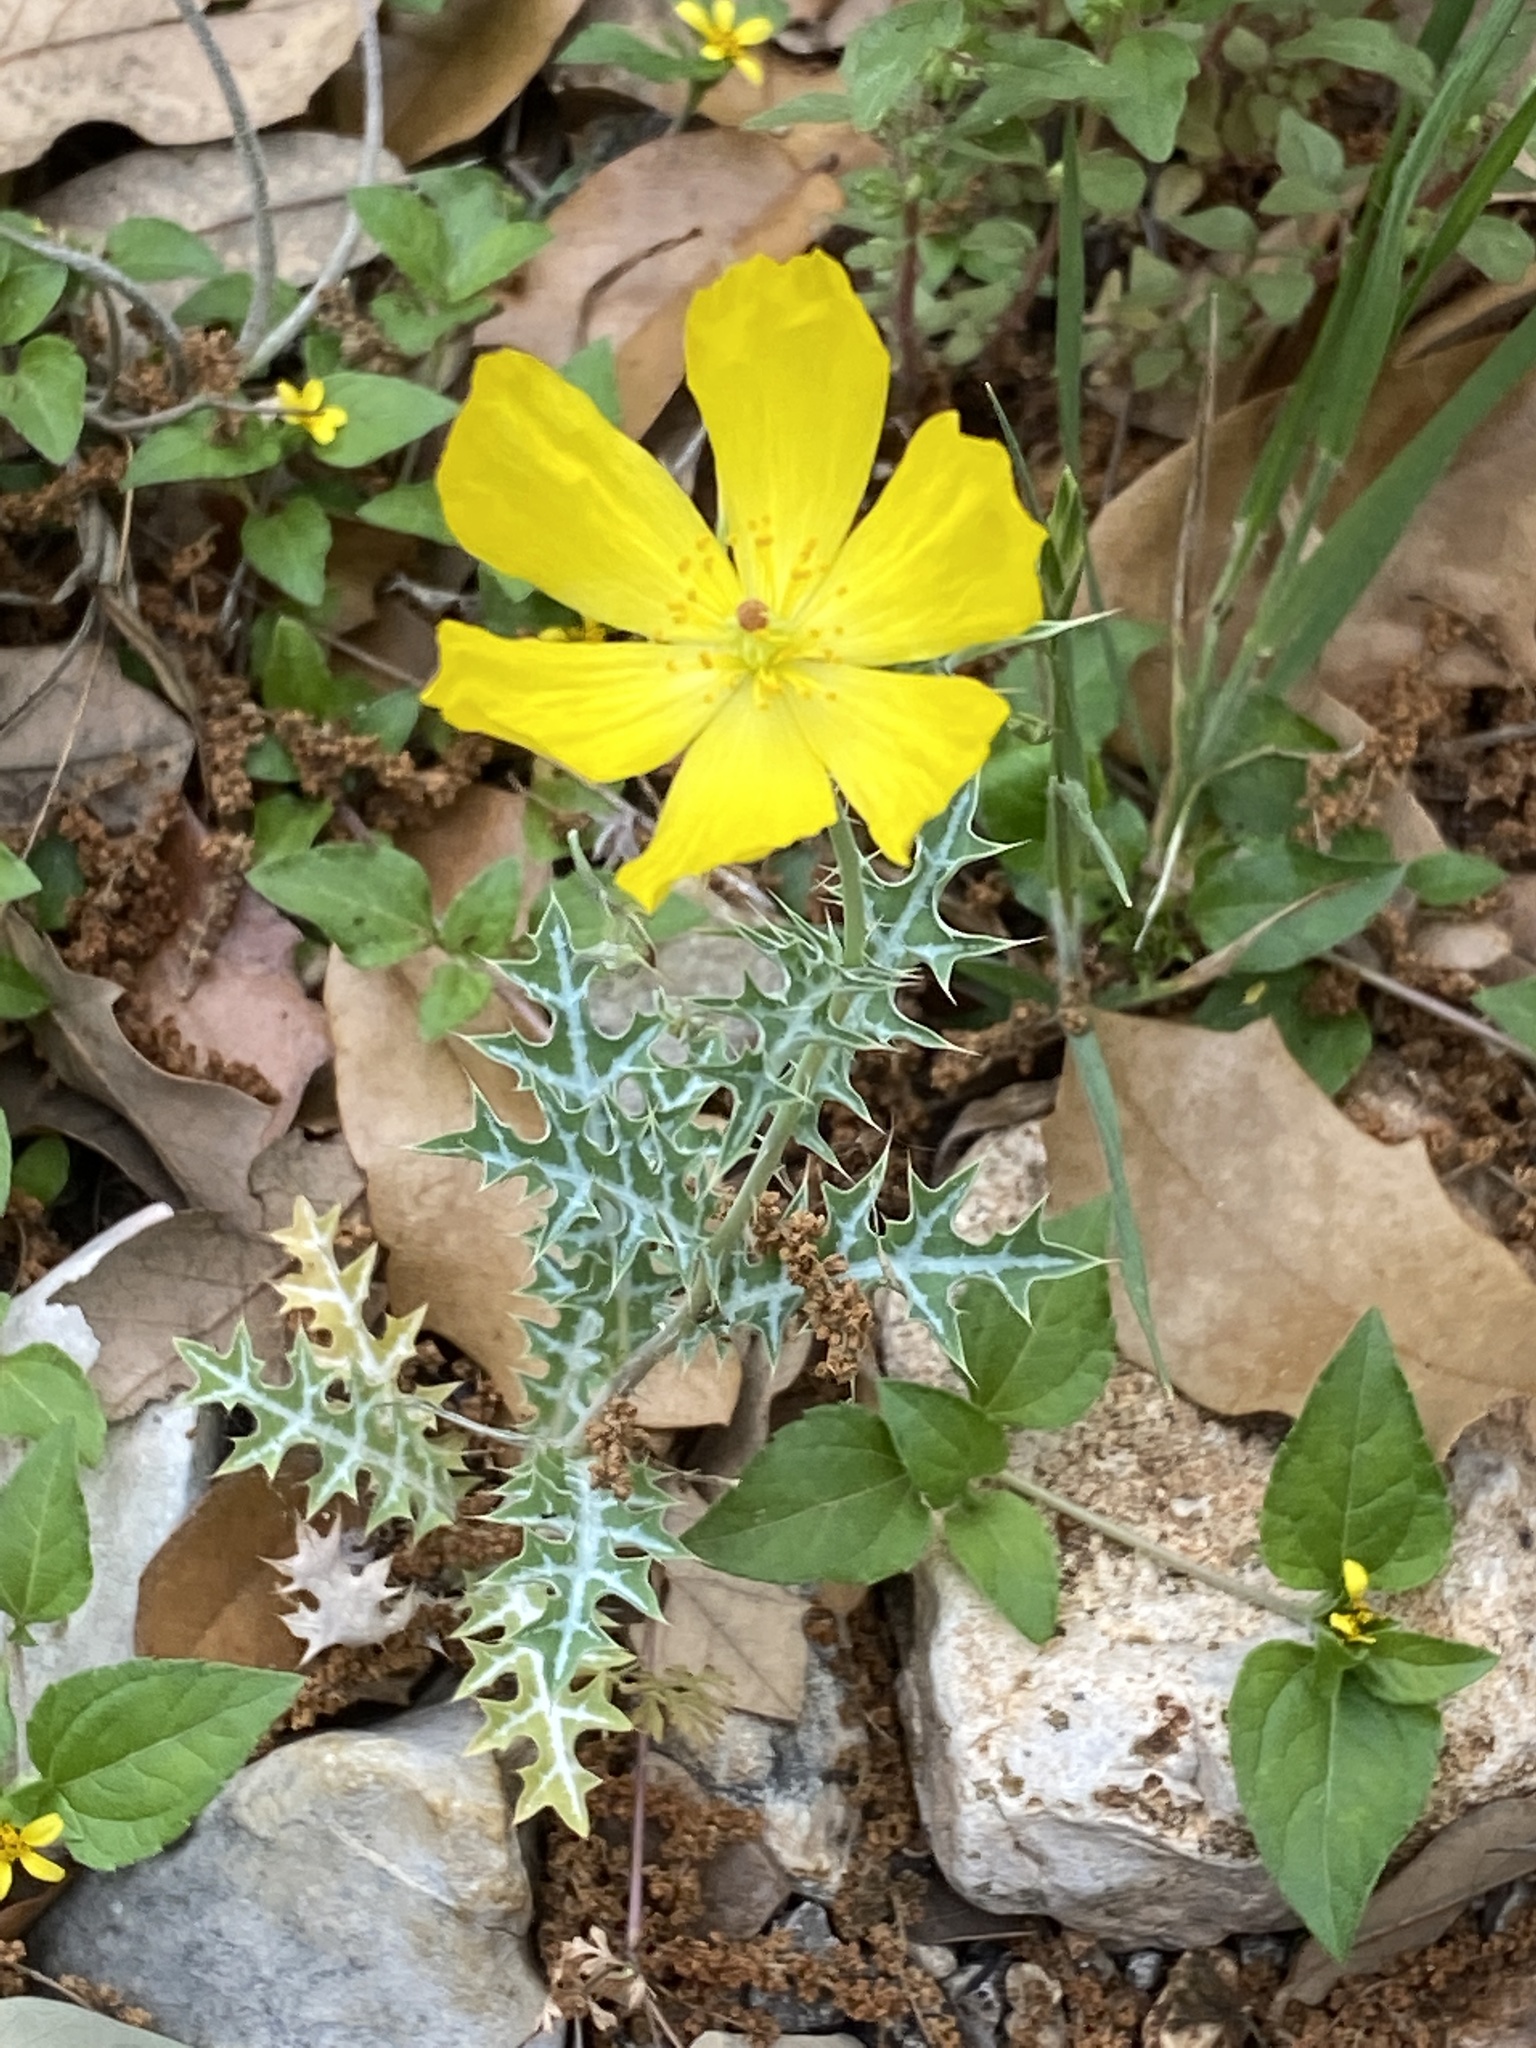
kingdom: Plantae
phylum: Tracheophyta
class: Magnoliopsida
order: Ranunculales
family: Papaveraceae
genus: Argemone
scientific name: Argemone mexicana
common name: Mexican poppy
